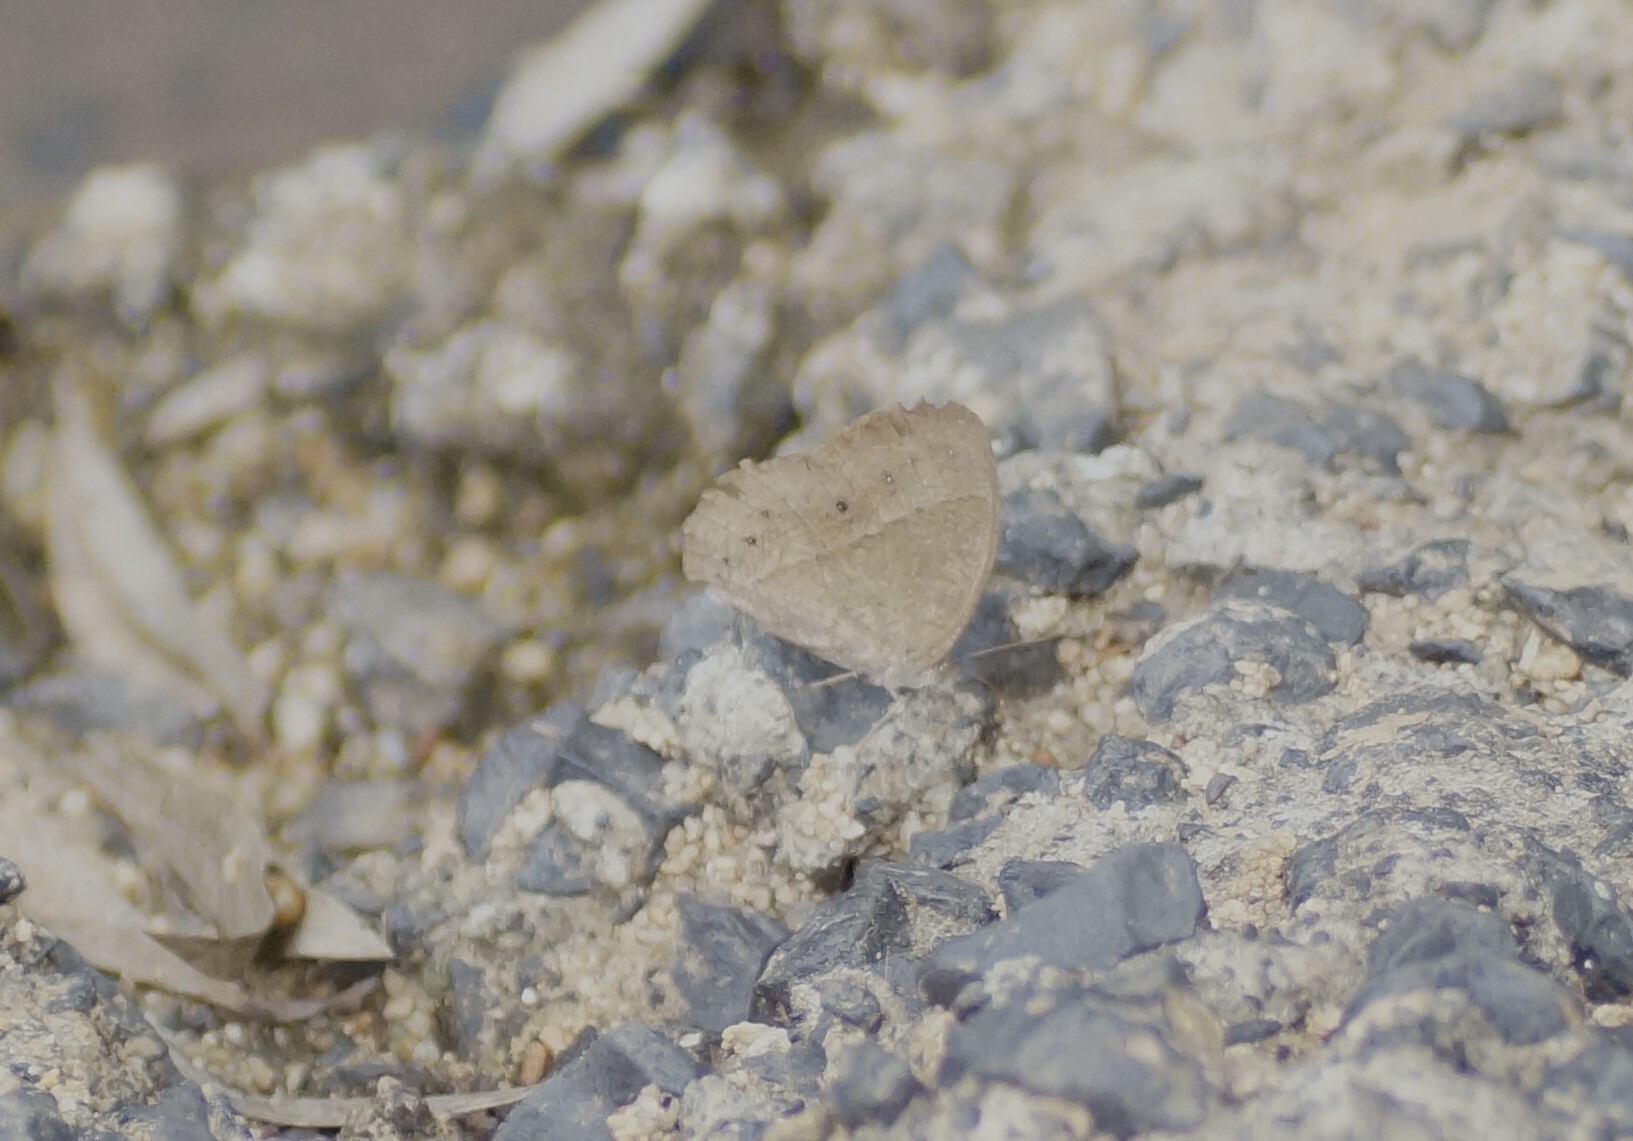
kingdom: Animalia
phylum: Arthropoda
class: Insecta
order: Lepidoptera
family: Nymphalidae
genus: Mycalesis
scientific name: Mycalesis perseus
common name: Dingy bushbrown
